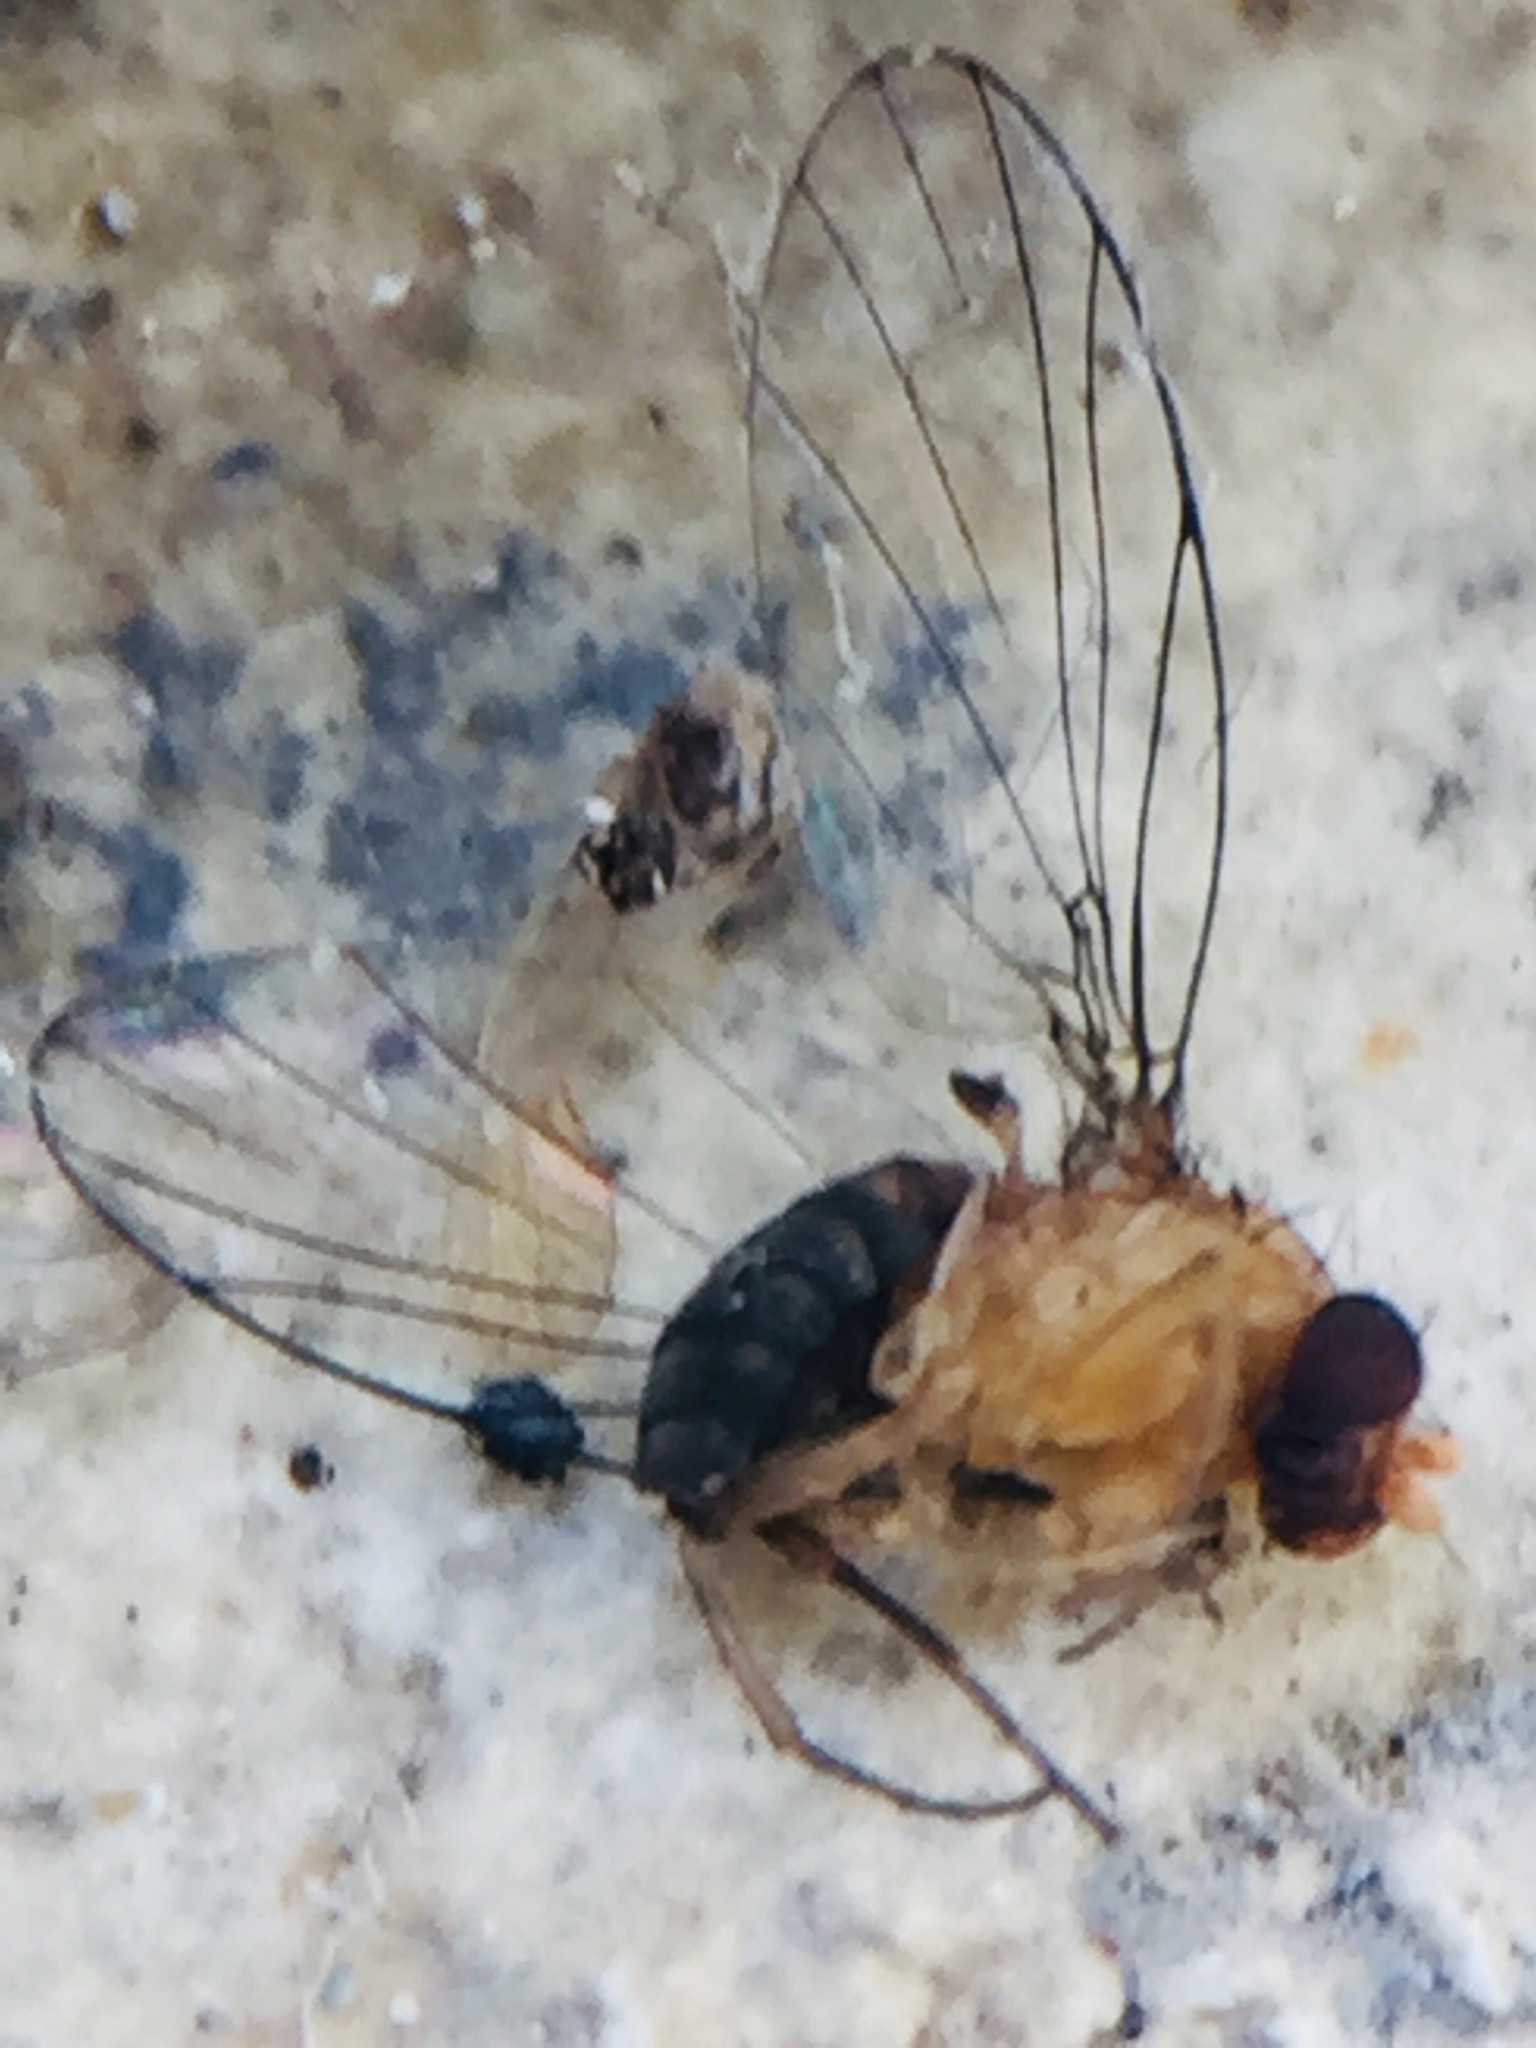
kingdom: Animalia
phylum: Arthropoda
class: Insecta
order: Diptera
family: Phoridae
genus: Sciadocera
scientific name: Sciadocera rufomaculata
